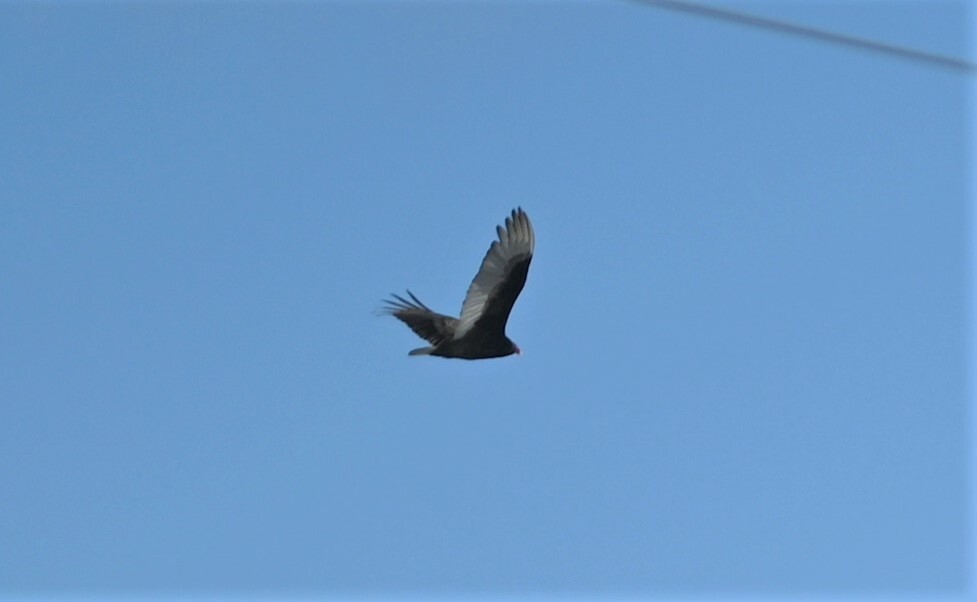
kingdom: Animalia
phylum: Chordata
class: Aves
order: Accipitriformes
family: Cathartidae
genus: Cathartes
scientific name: Cathartes aura
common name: Turkey vulture
